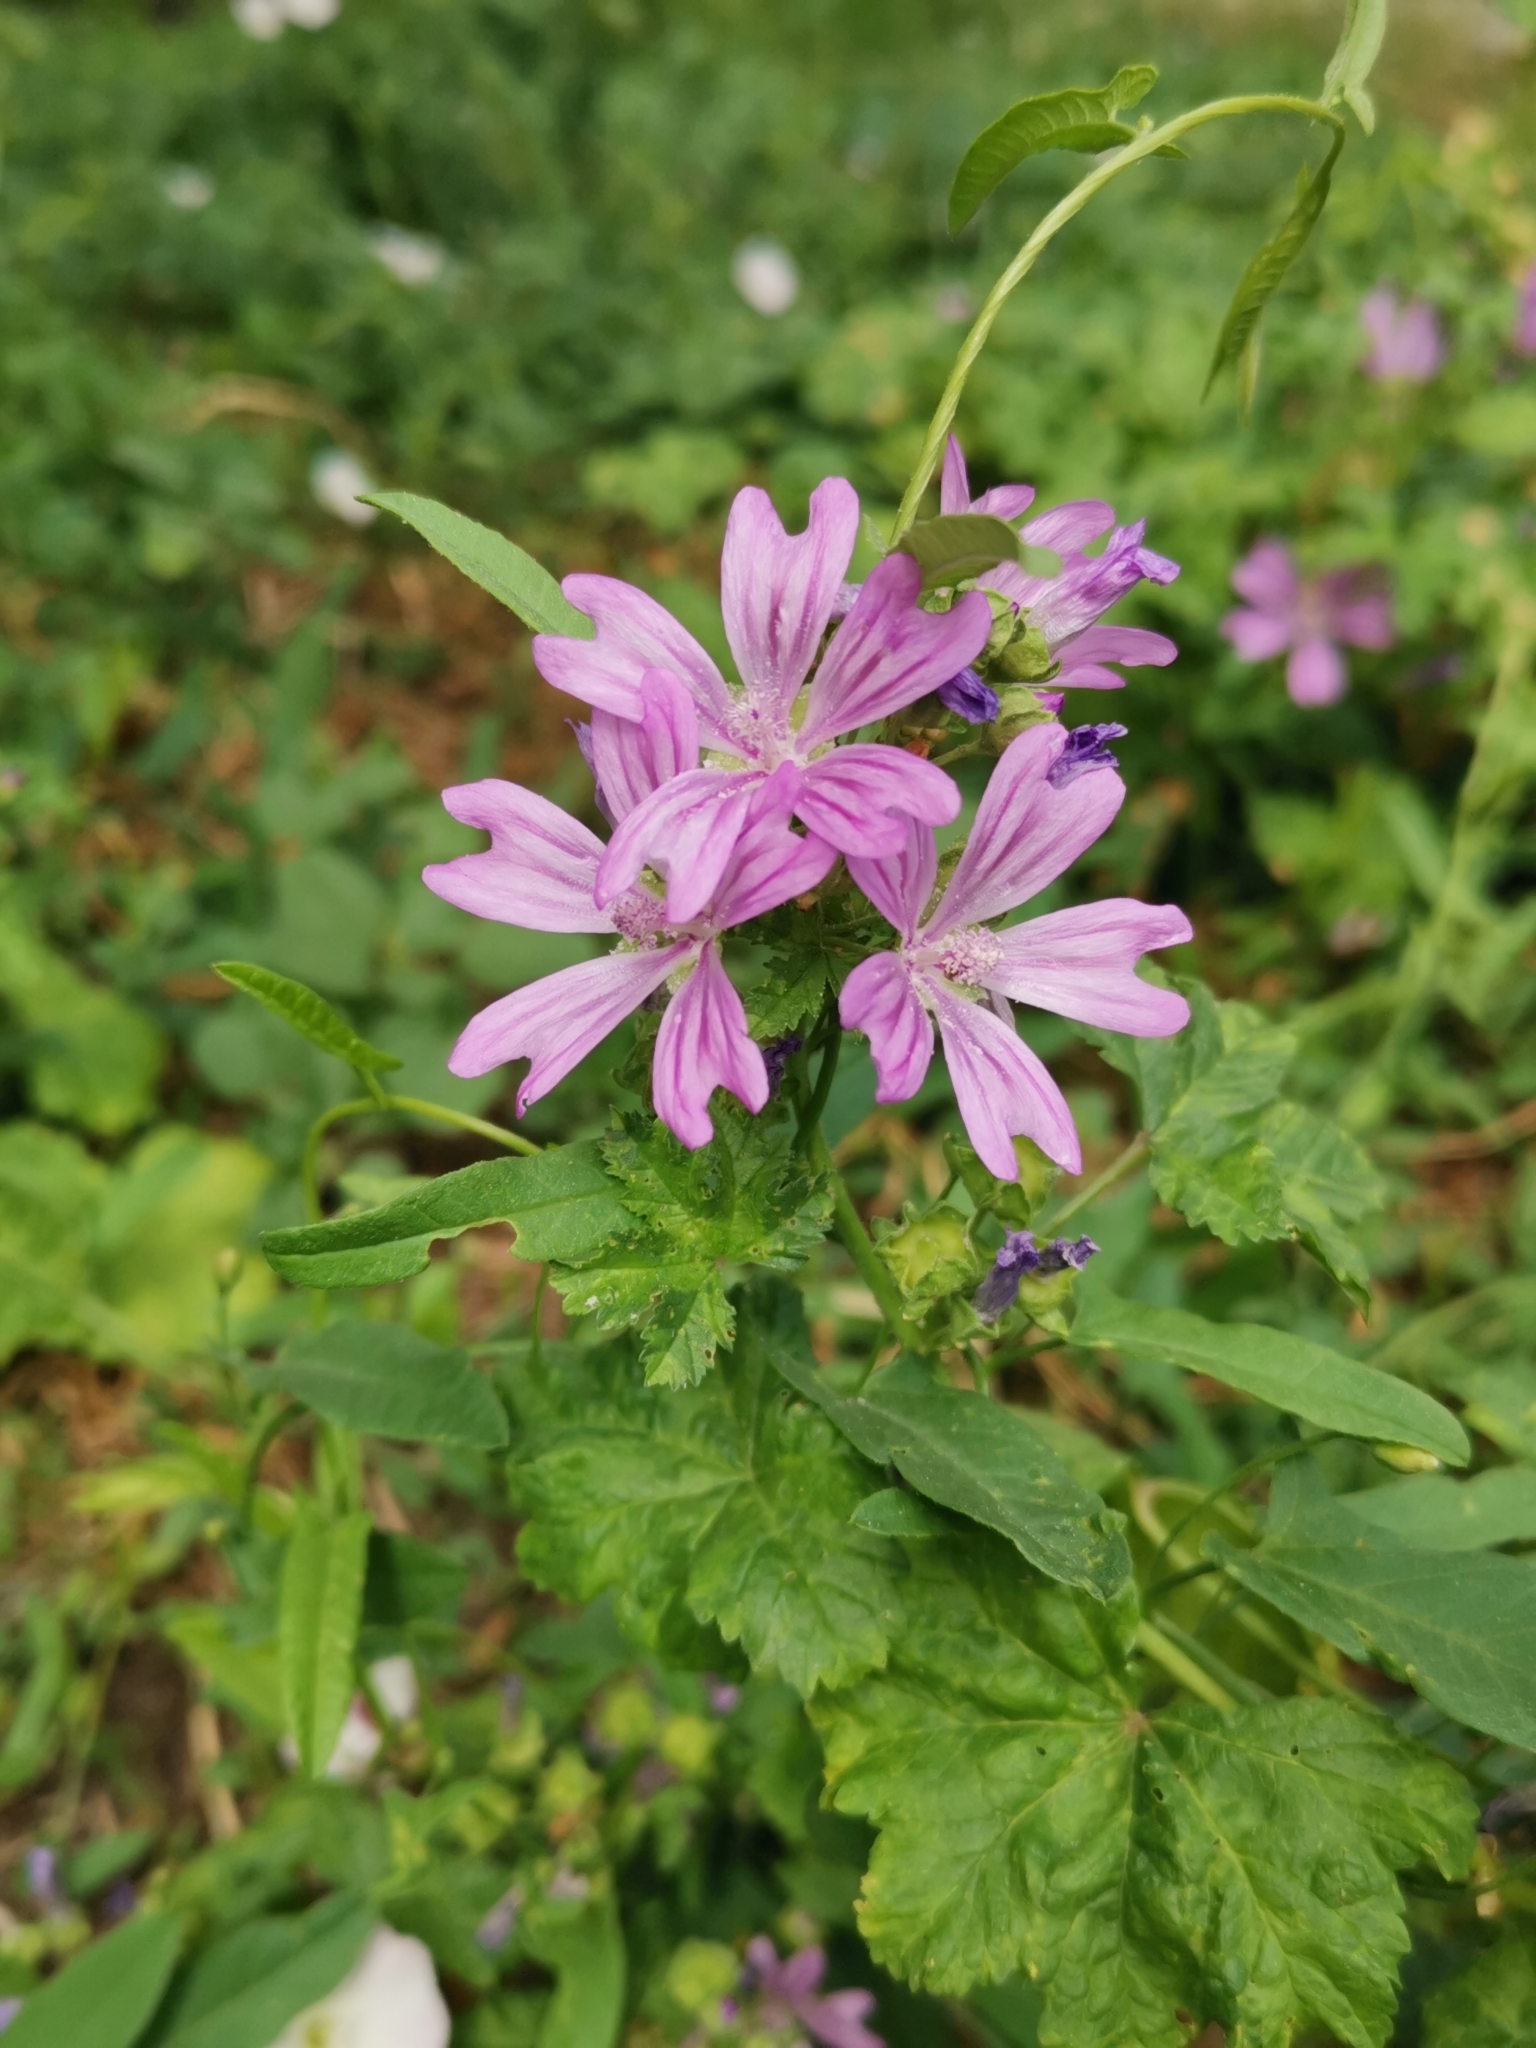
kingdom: Plantae
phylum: Tracheophyta
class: Magnoliopsida
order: Malvales
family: Malvaceae
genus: Malva
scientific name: Malva sylvestris
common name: Common mallow
